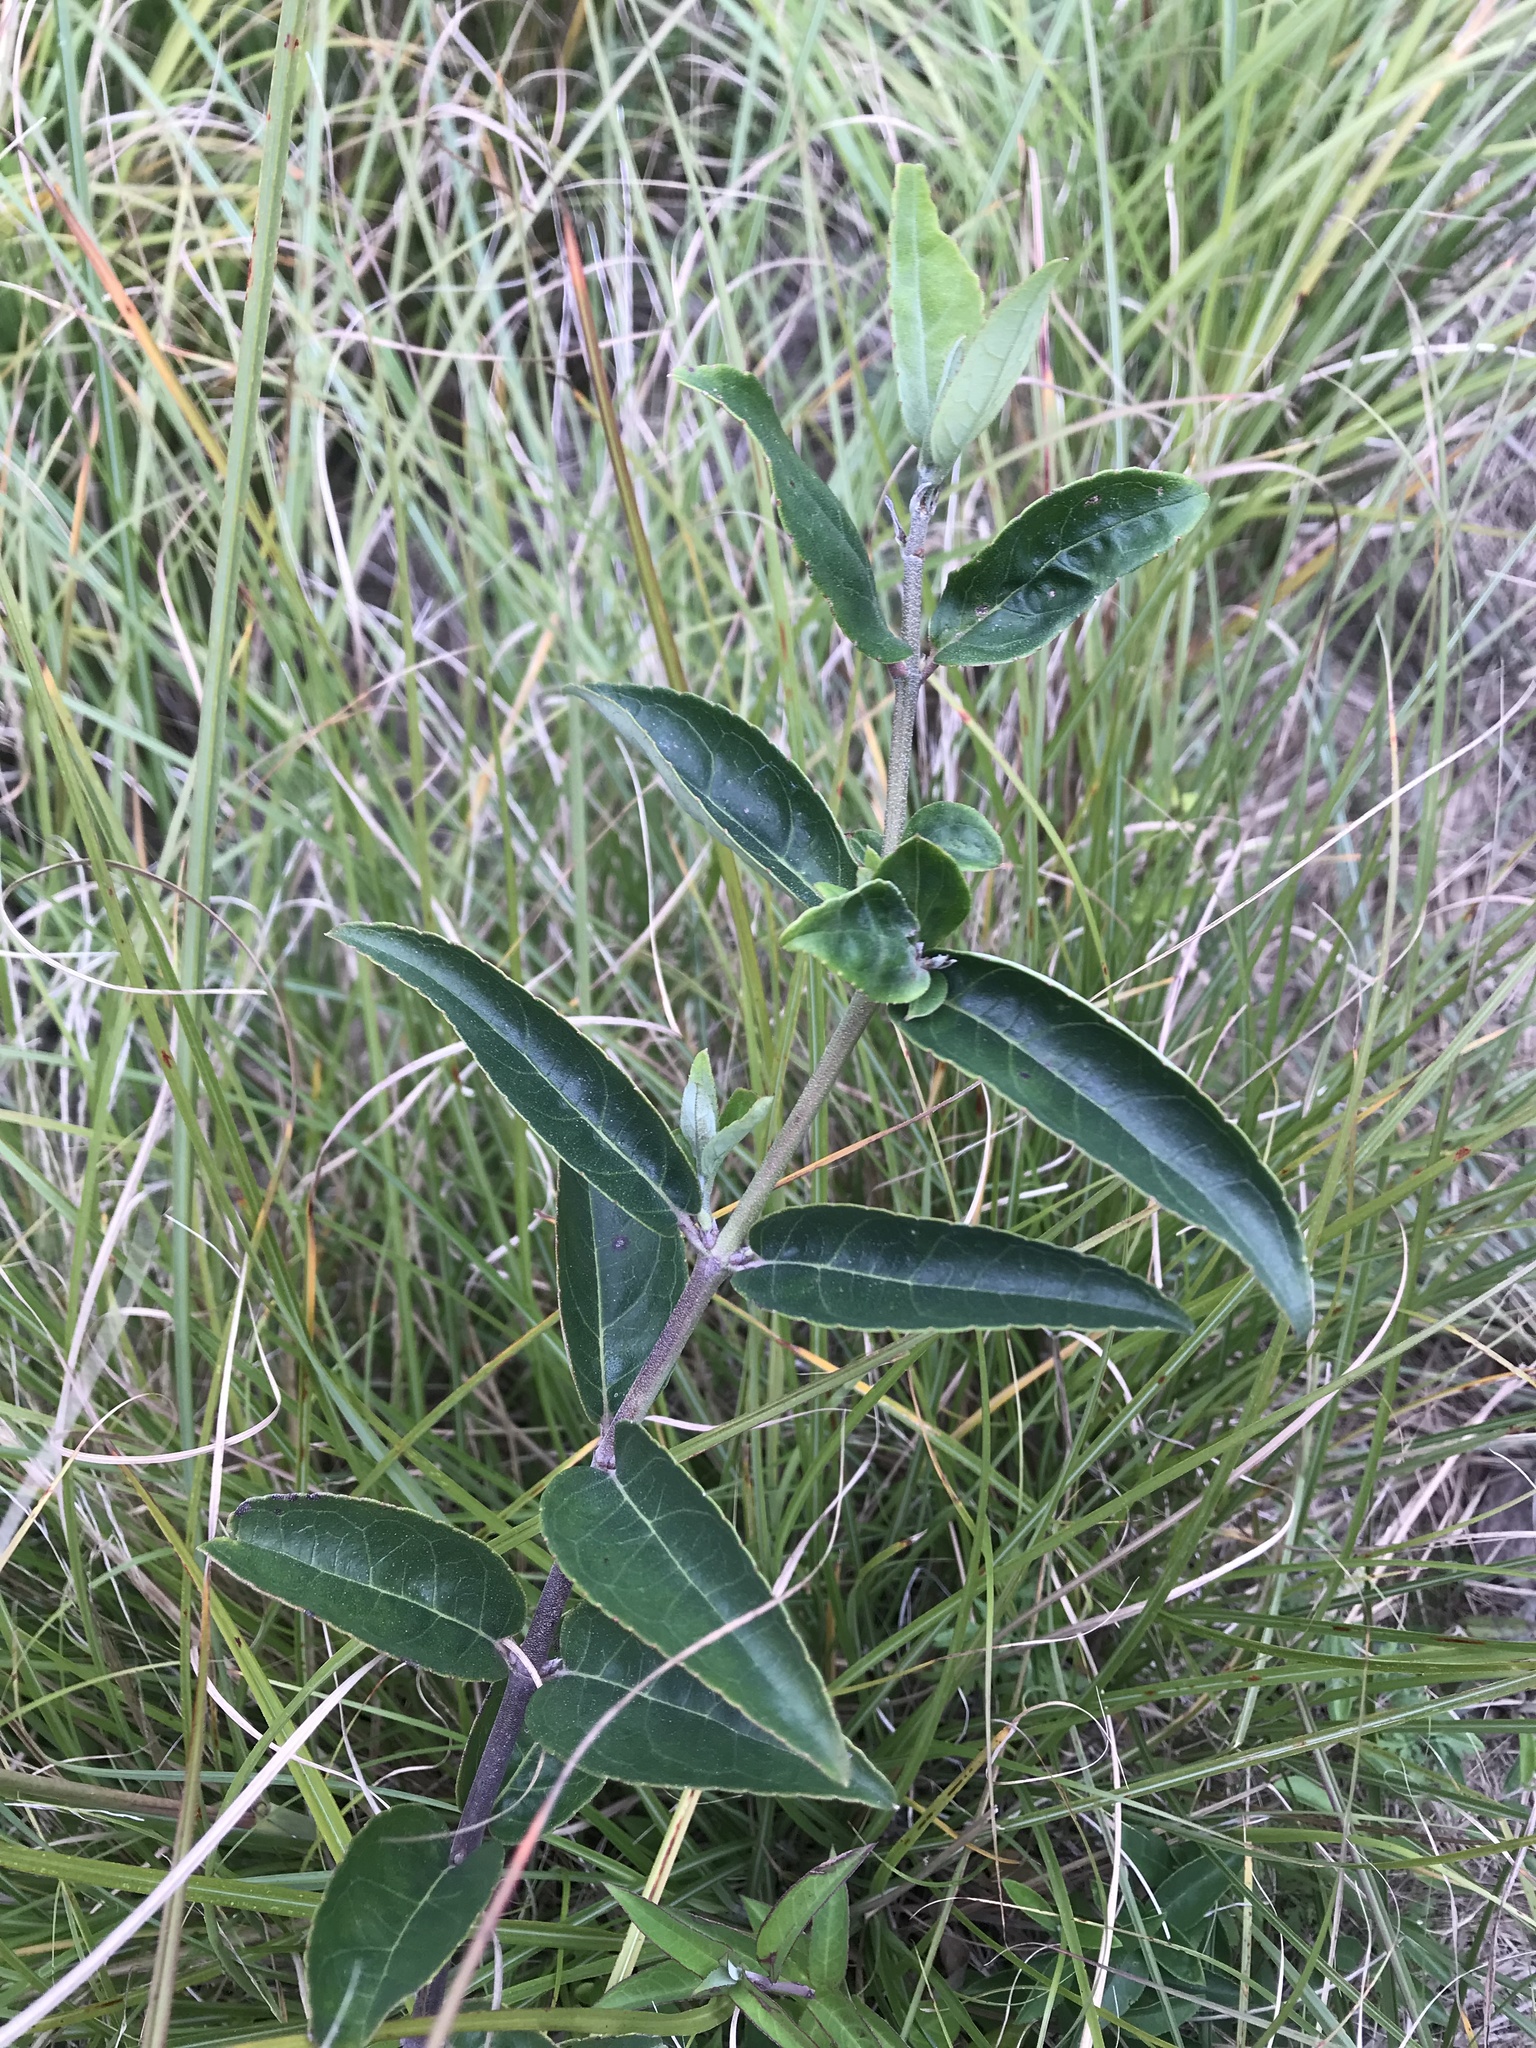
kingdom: Plantae
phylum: Tracheophyta
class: Magnoliopsida
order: Cornales
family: Hydrangeaceae
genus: Deutzia
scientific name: Deutzia pulchra
